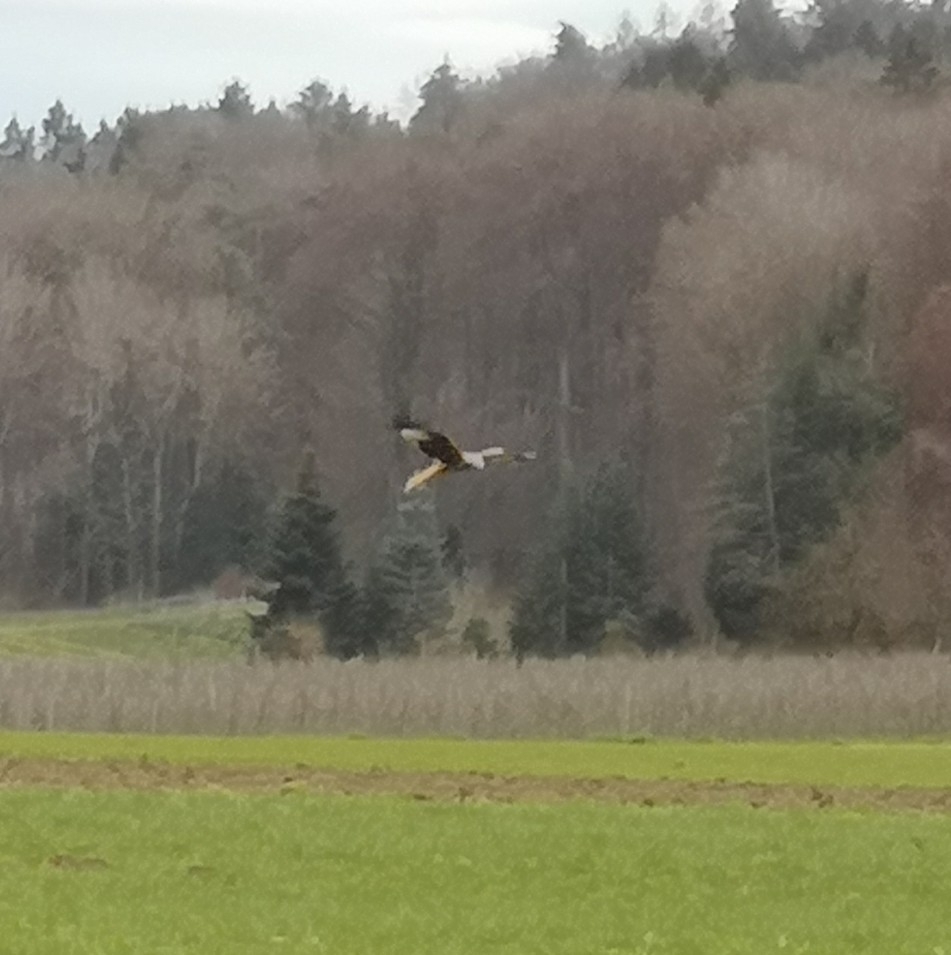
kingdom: Animalia
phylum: Chordata
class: Aves
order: Accipitriformes
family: Accipitridae
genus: Milvus
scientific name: Milvus milvus
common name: Red kite
